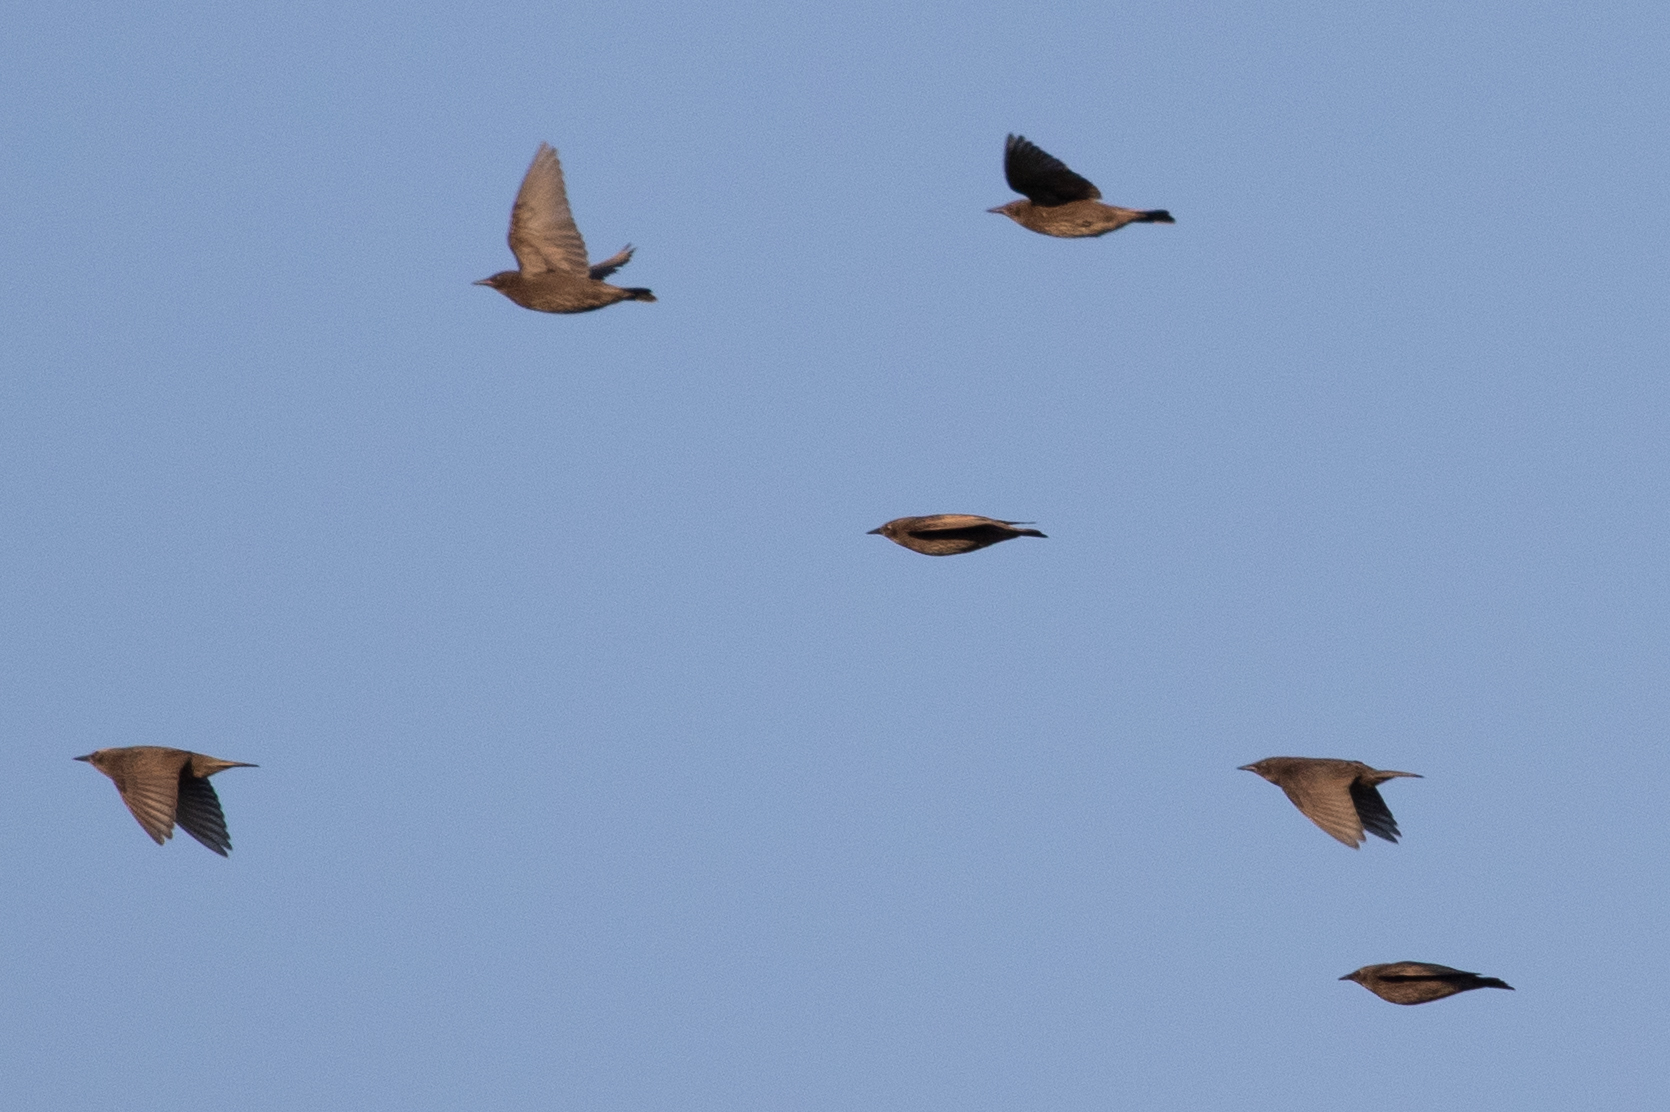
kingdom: Animalia
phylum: Chordata
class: Aves
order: Passeriformes
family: Sturnidae
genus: Sturnus
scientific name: Sturnus vulgaris
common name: Common starling
